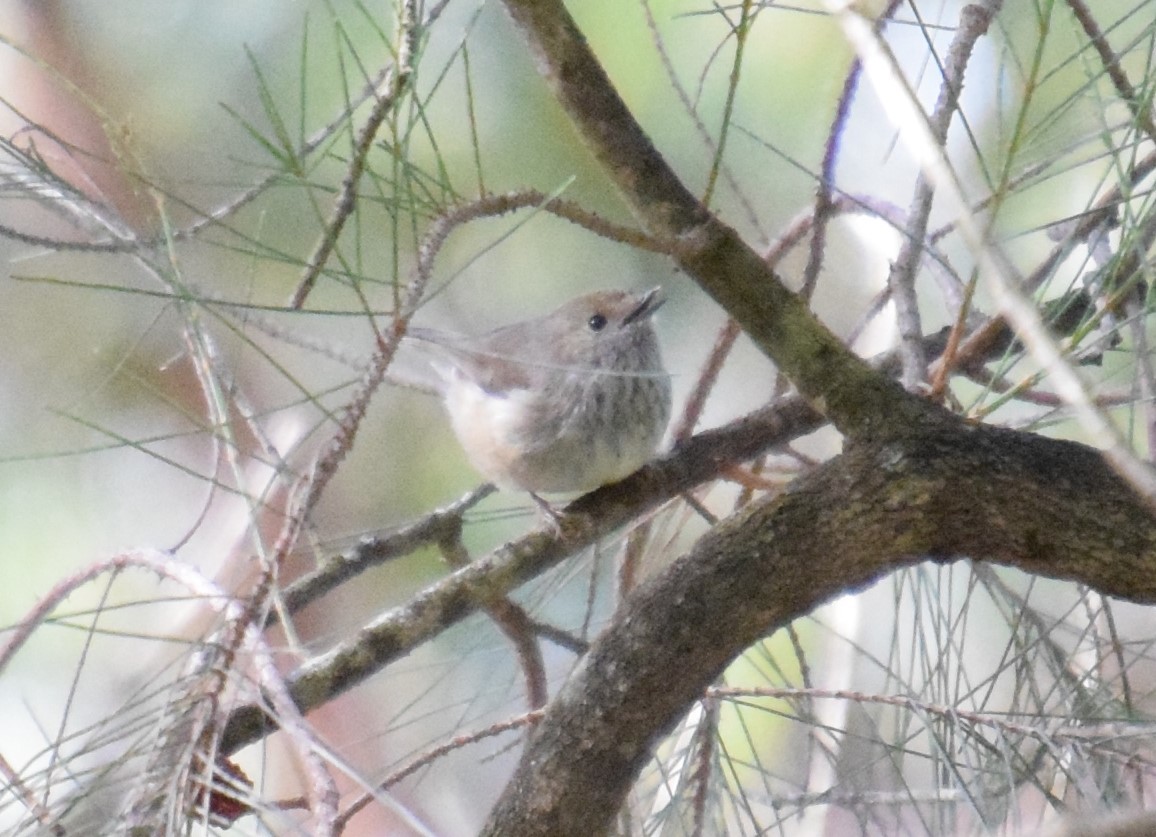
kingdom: Animalia
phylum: Chordata
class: Aves
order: Passeriformes
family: Acanthizidae
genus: Acanthiza
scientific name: Acanthiza pusilla
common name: Brown thornbill
